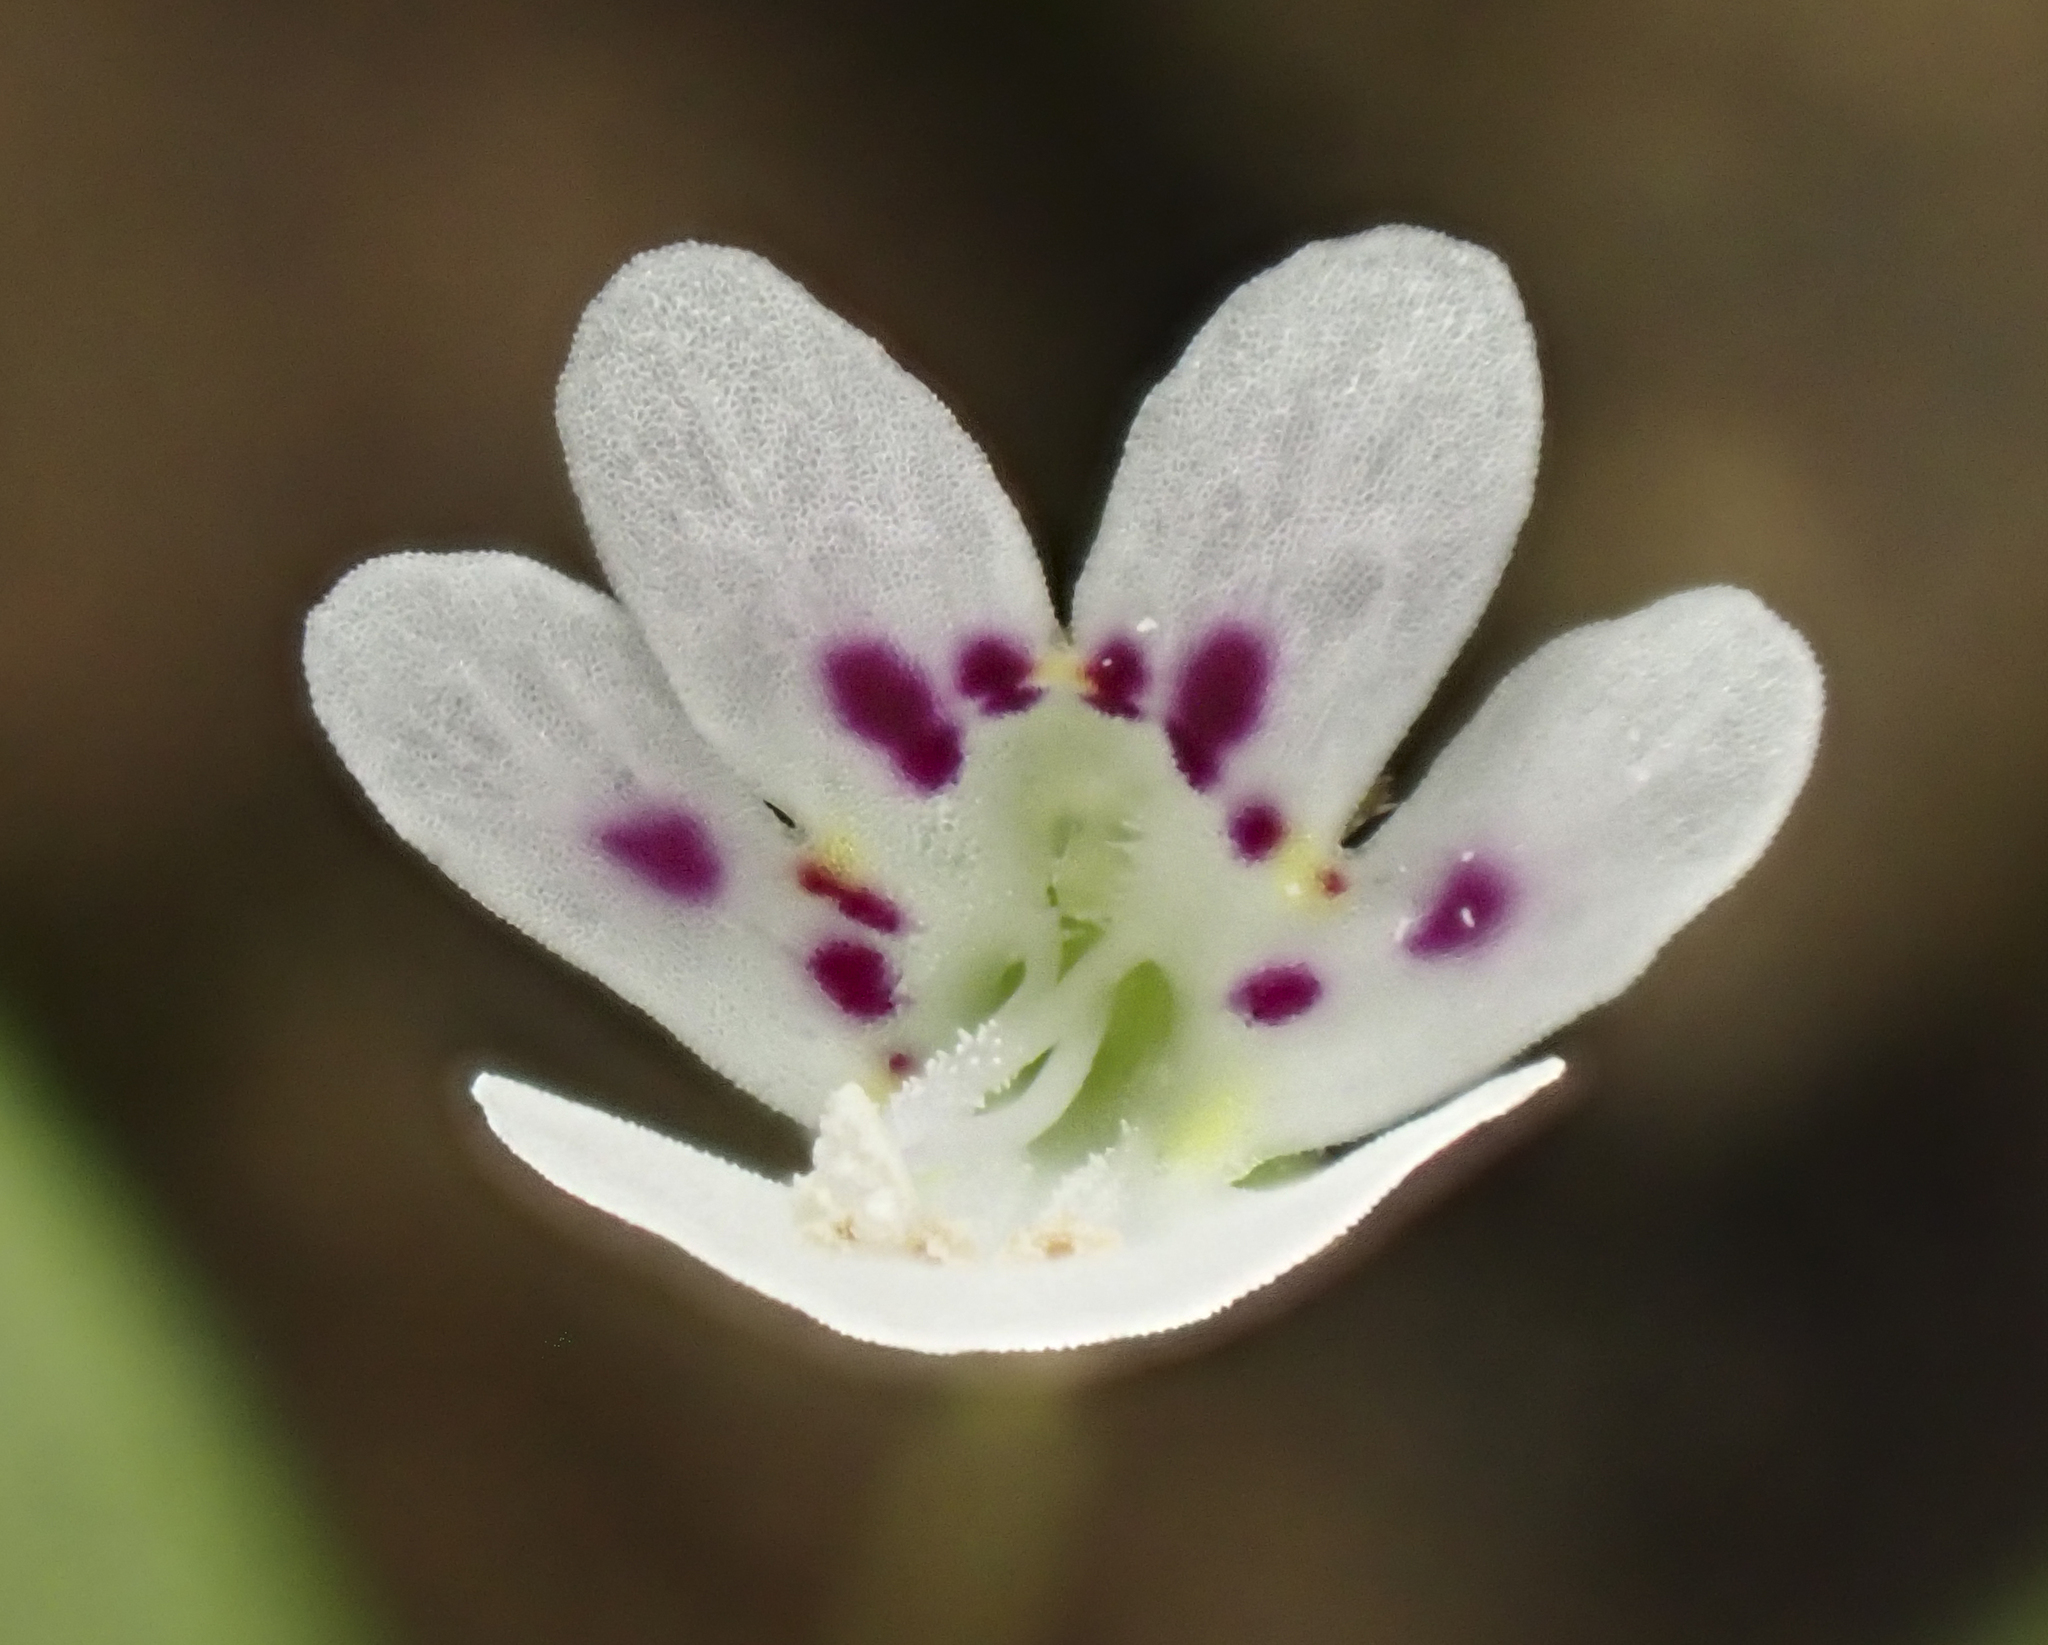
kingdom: Plantae
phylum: Tracheophyta
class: Magnoliopsida
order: Lamiales
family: Plantaginaceae
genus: Tonella
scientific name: Tonella tenella
